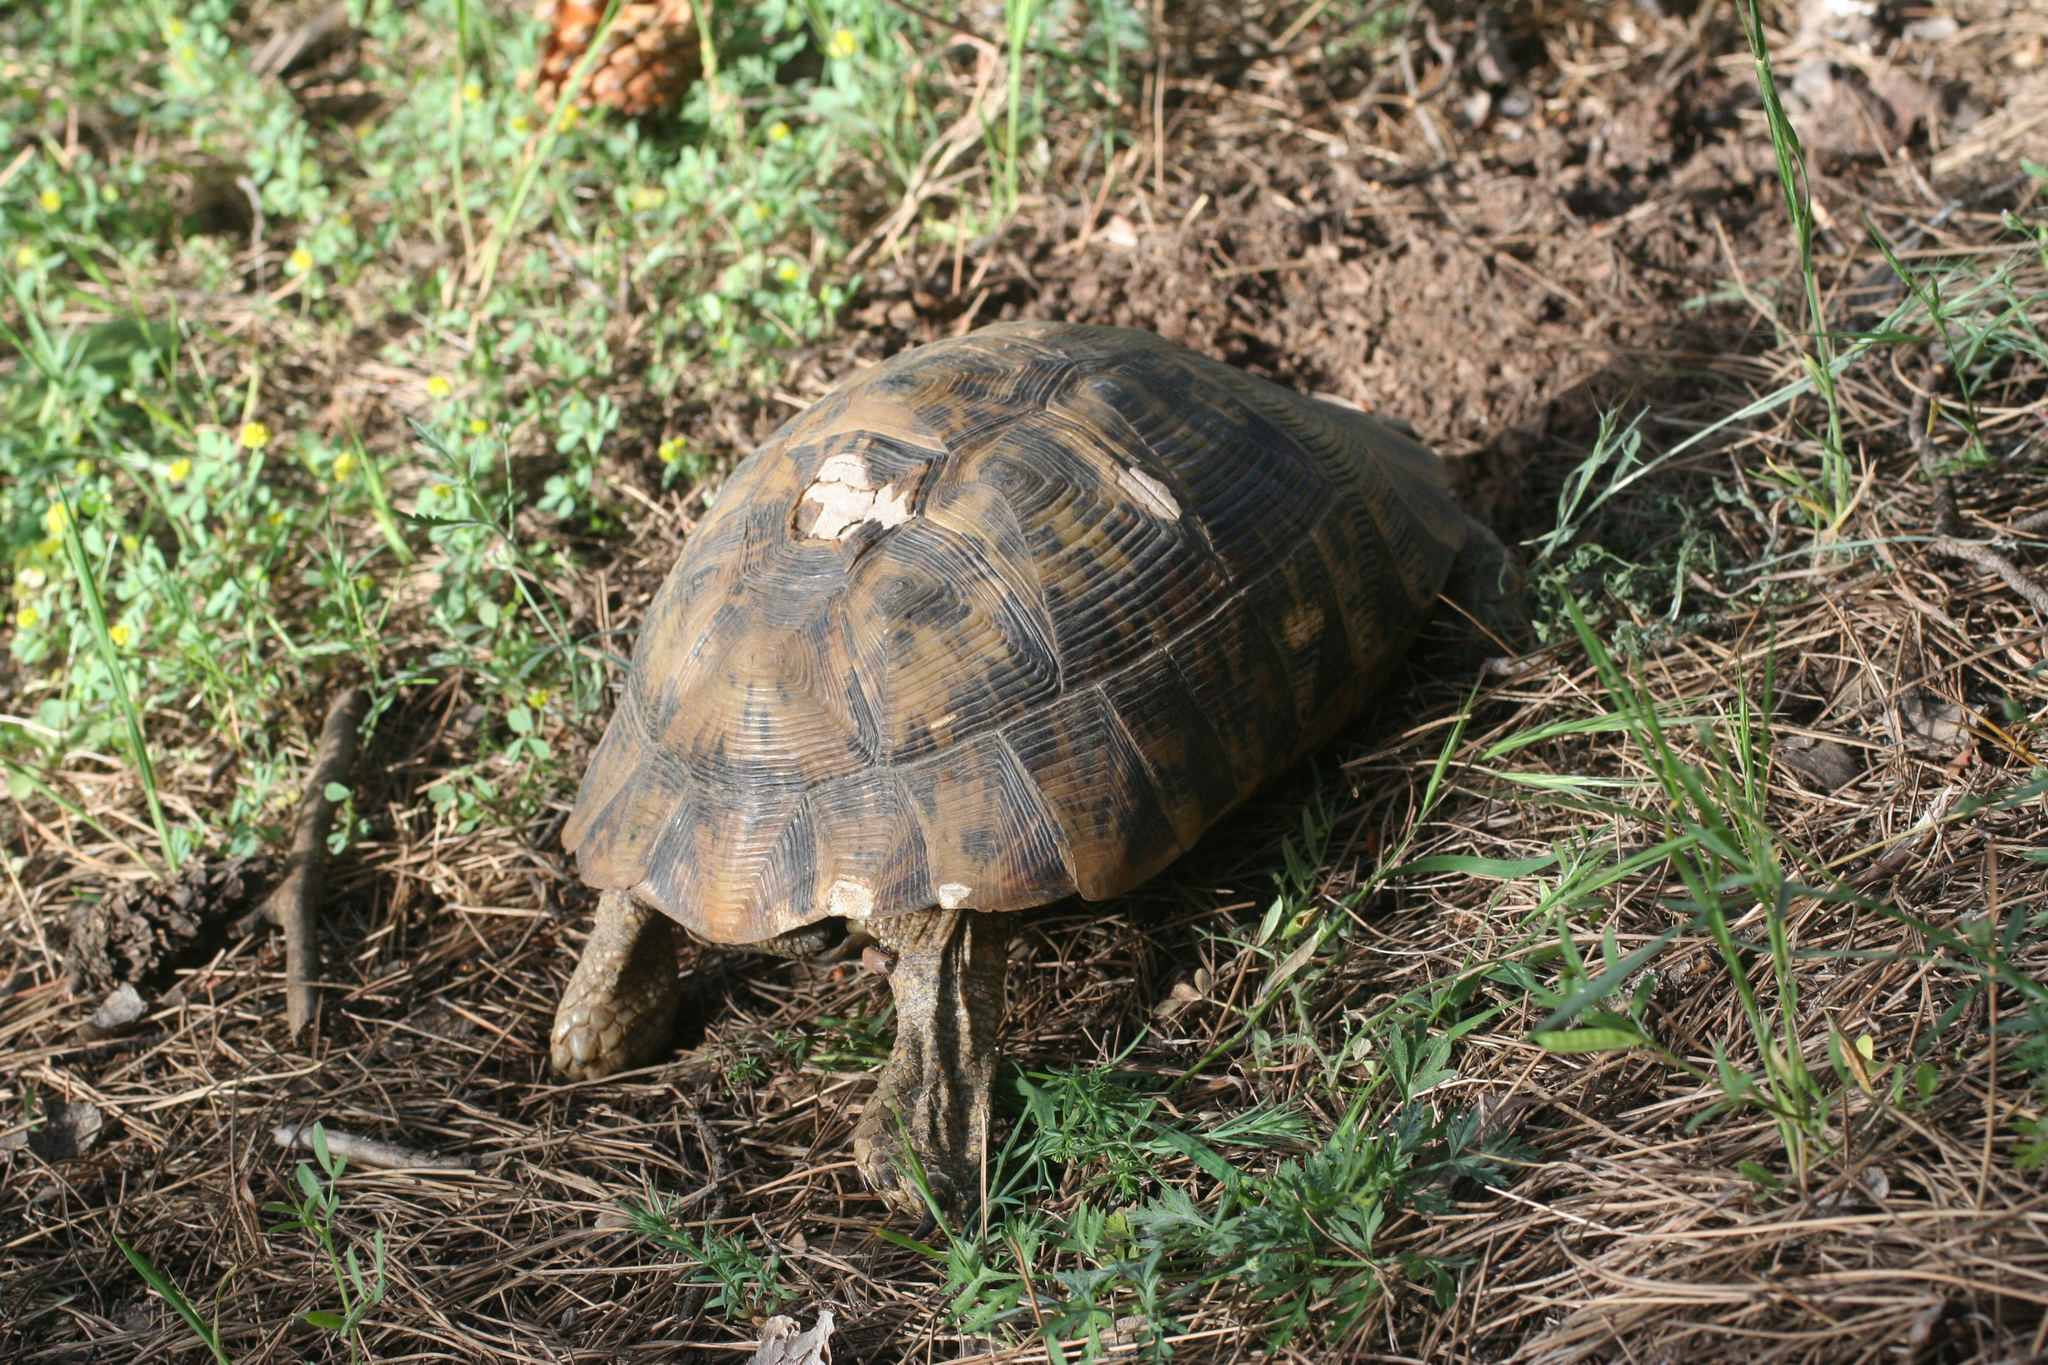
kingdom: Animalia
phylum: Chordata
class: Testudines
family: Testudinidae
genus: Testudo
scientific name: Testudo graeca
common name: Common tortoise
